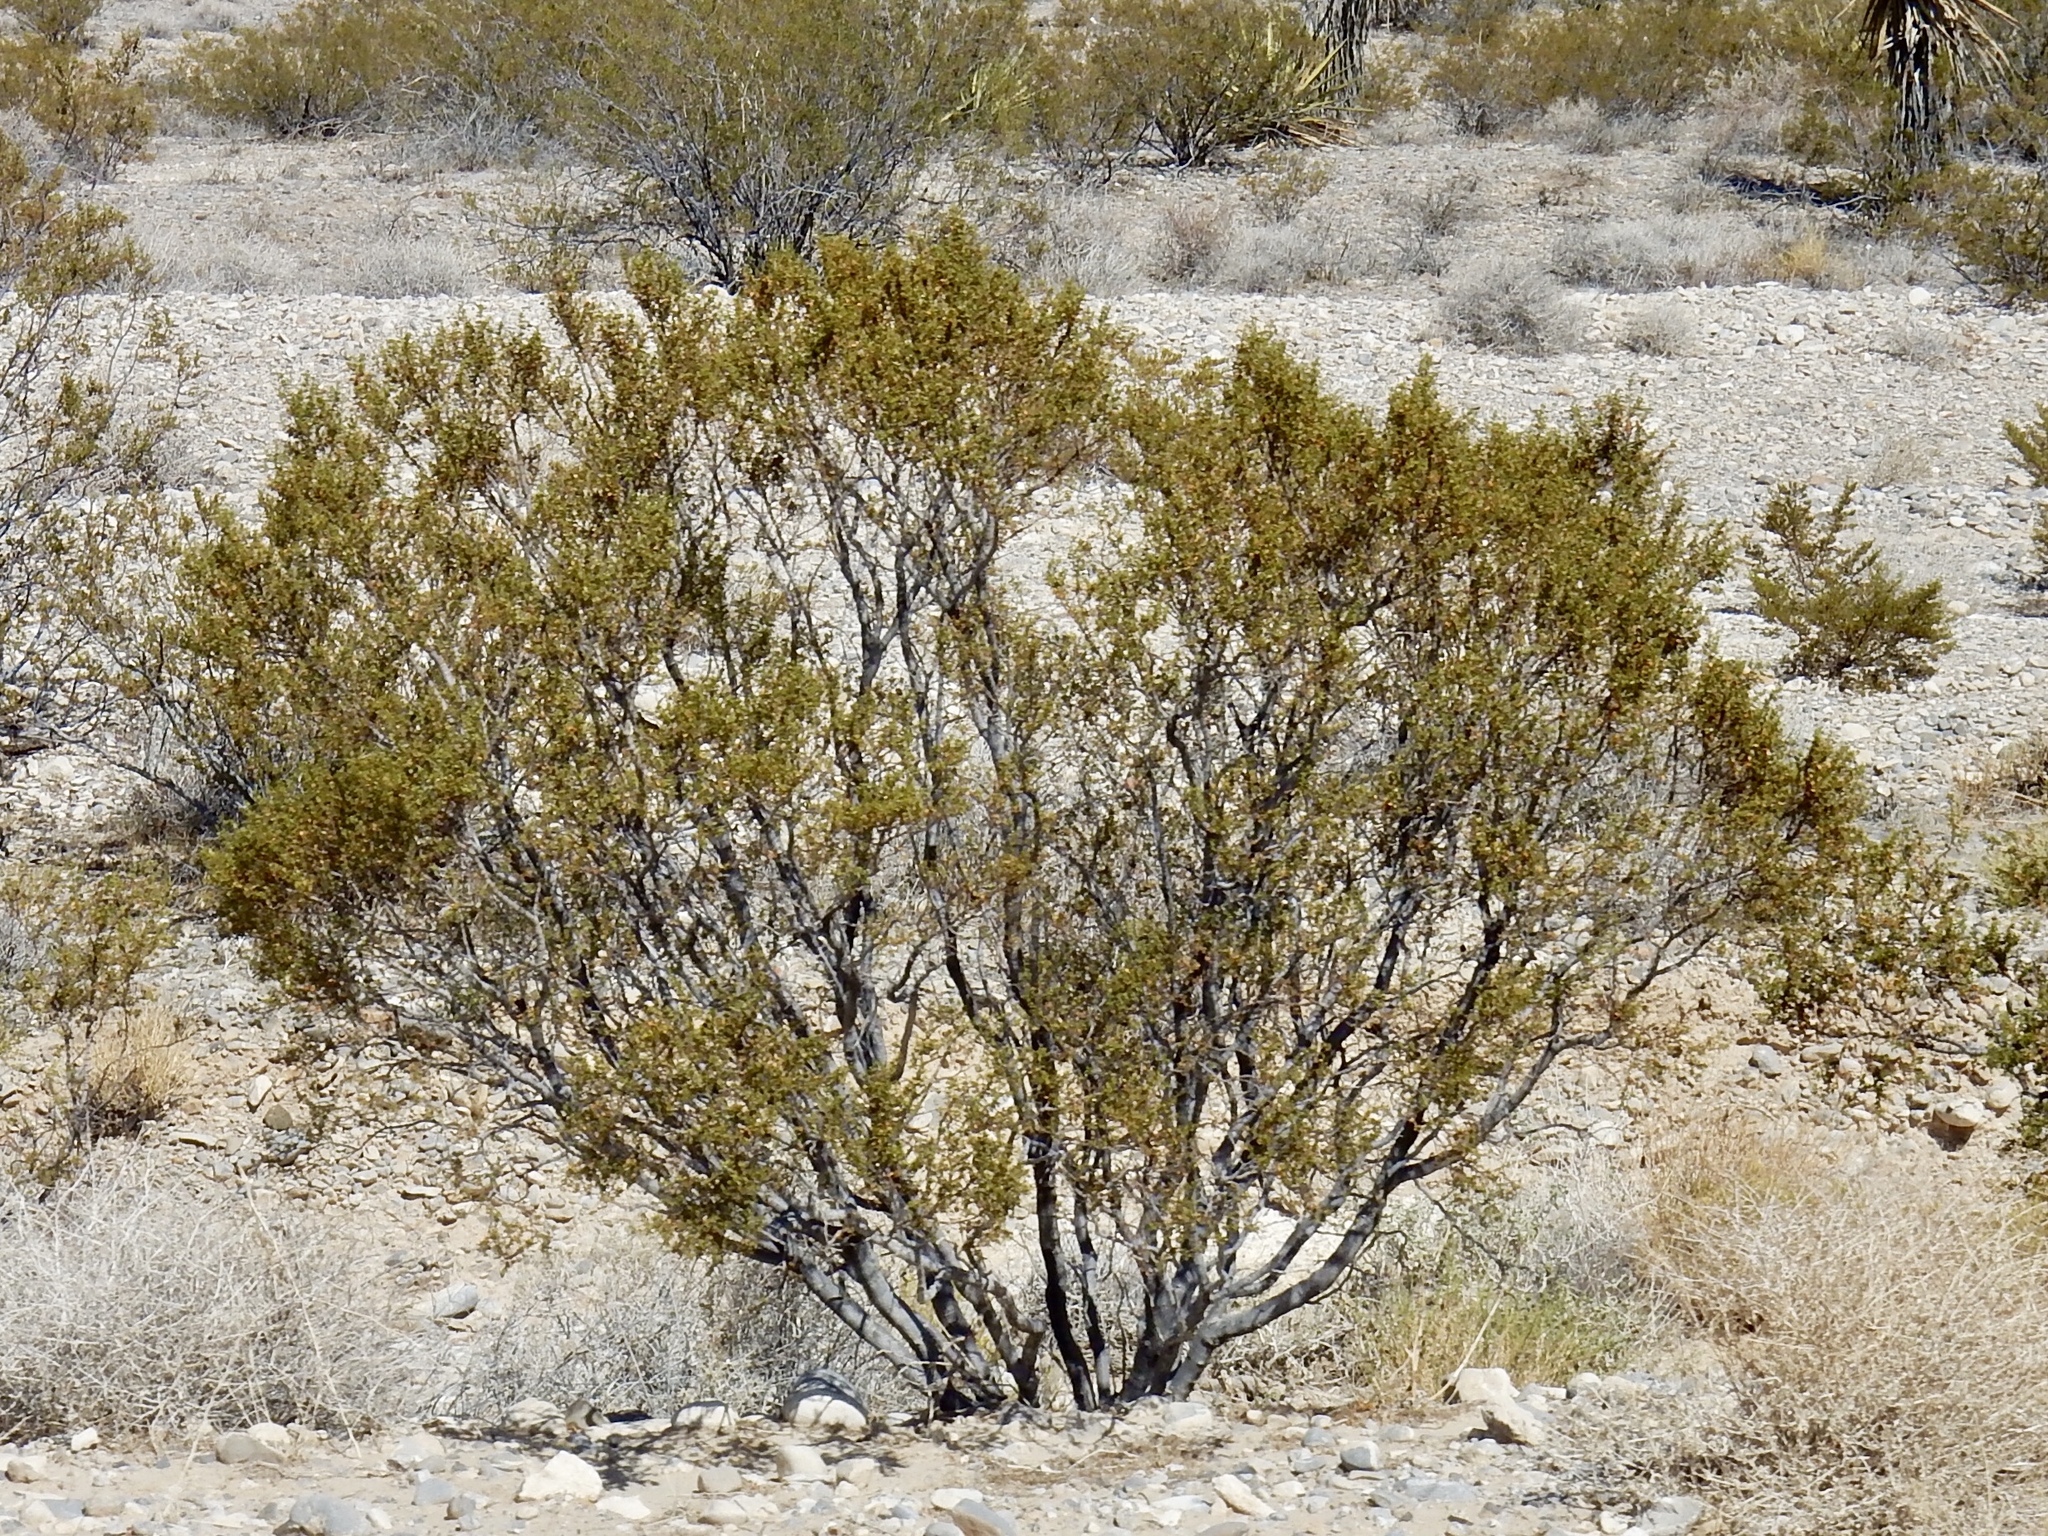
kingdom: Plantae
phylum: Tracheophyta
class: Magnoliopsida
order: Zygophyllales
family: Zygophyllaceae
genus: Larrea
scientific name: Larrea tridentata
